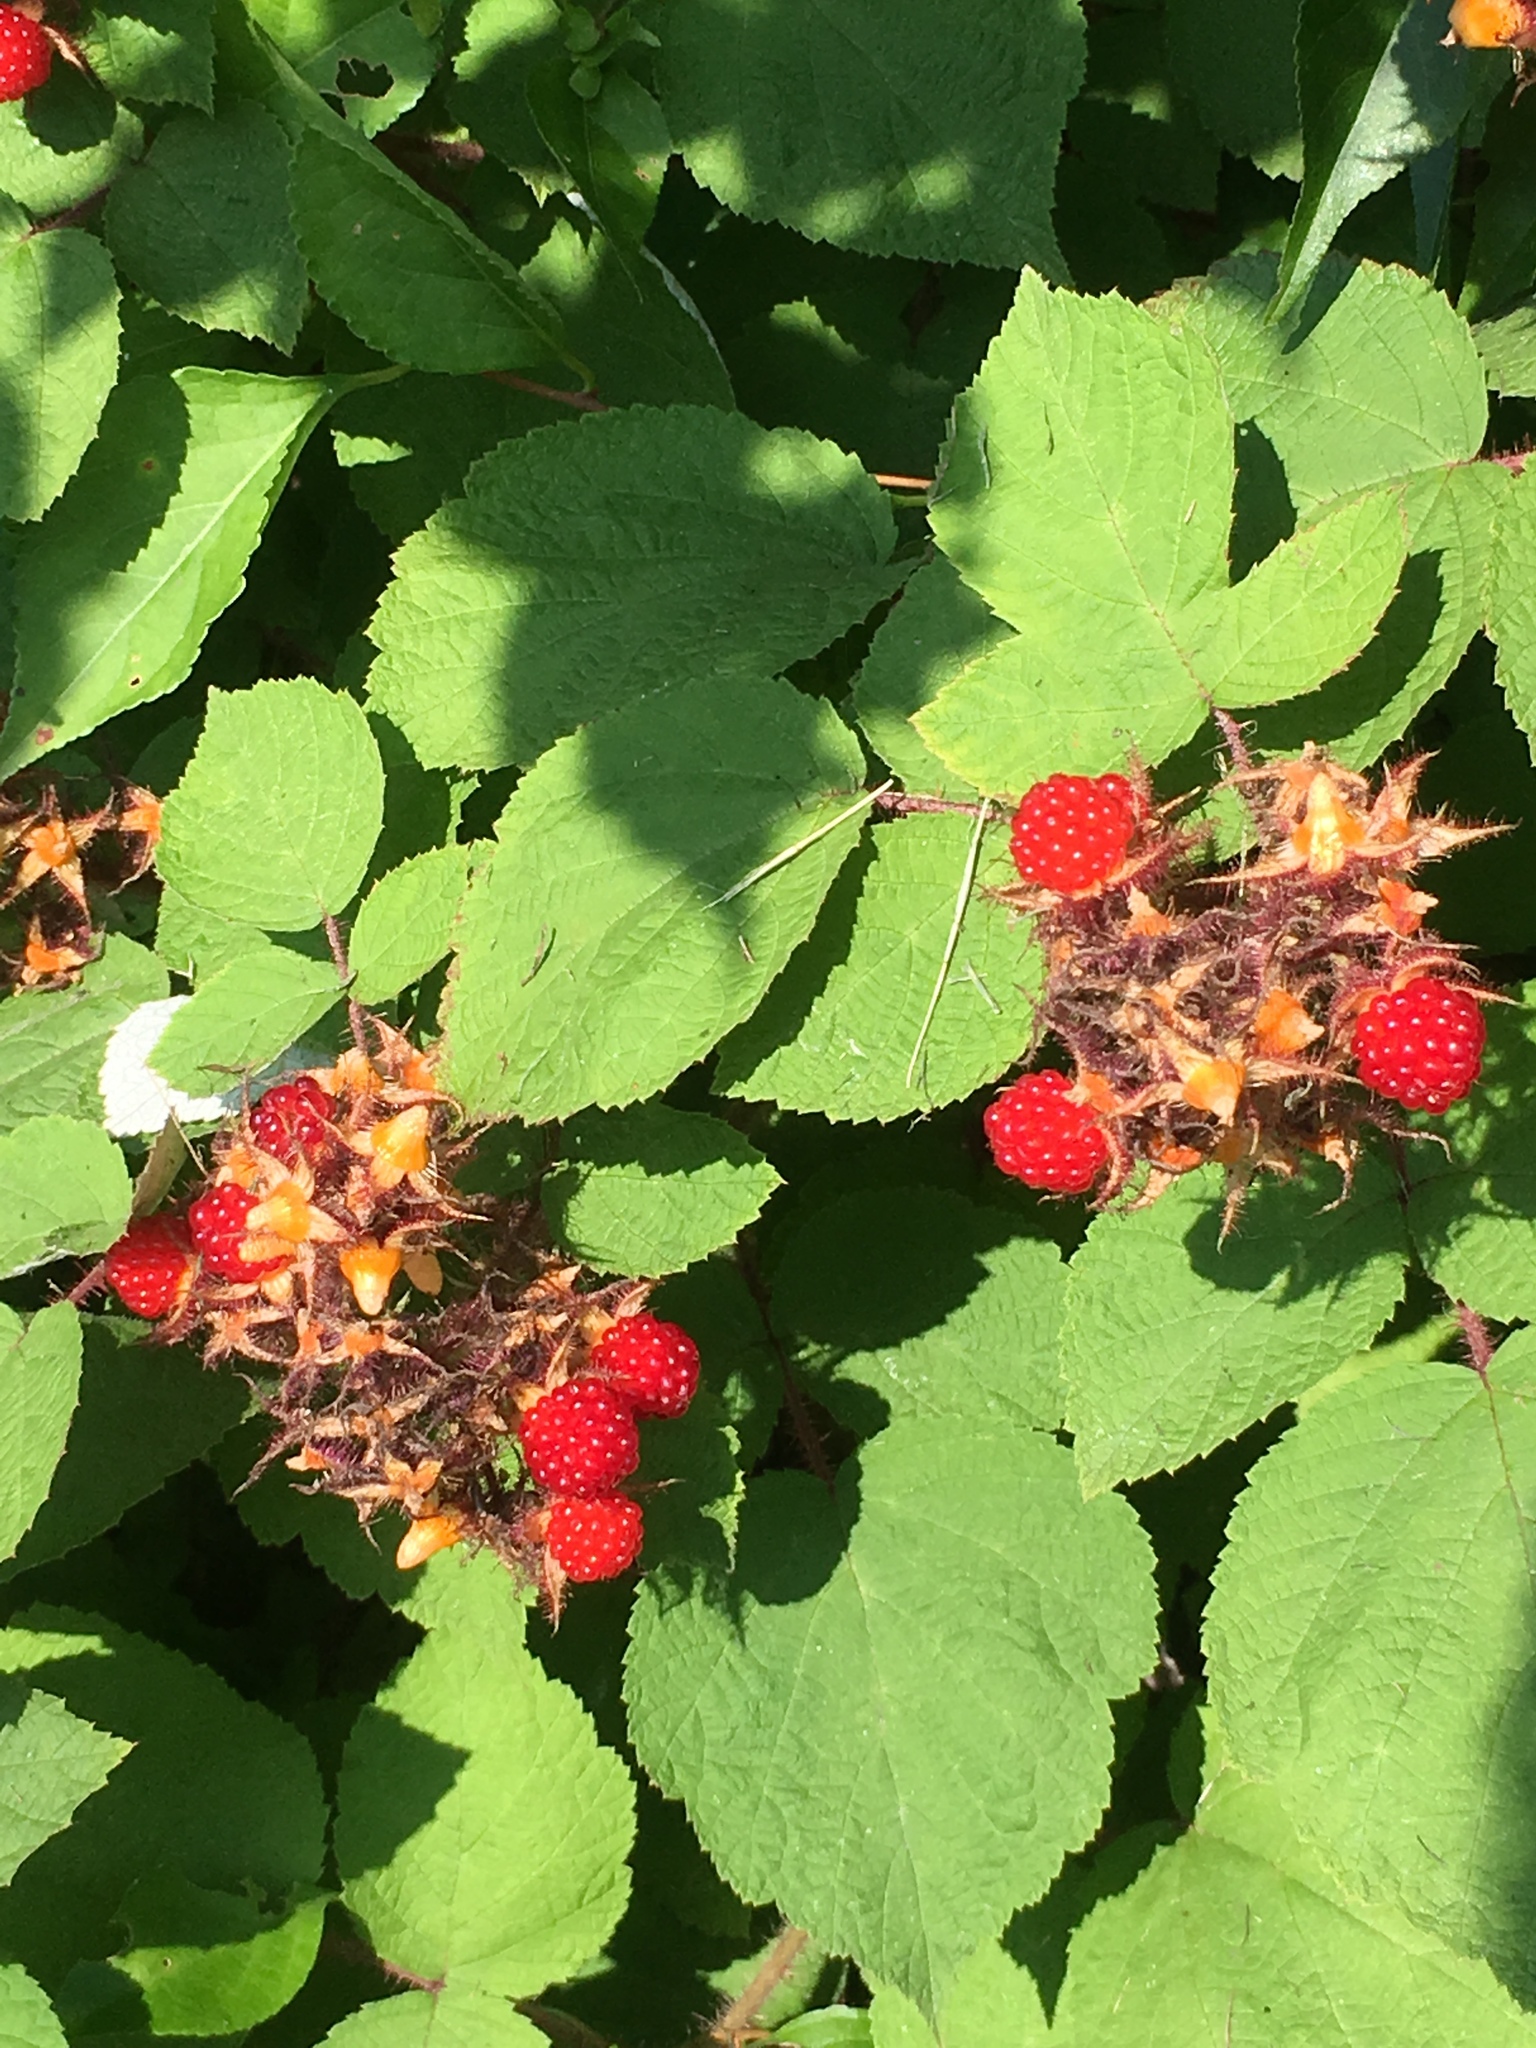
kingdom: Plantae
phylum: Tracheophyta
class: Magnoliopsida
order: Rosales
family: Rosaceae
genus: Rubus
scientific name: Rubus phoenicolasius
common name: Japanese wineberry
